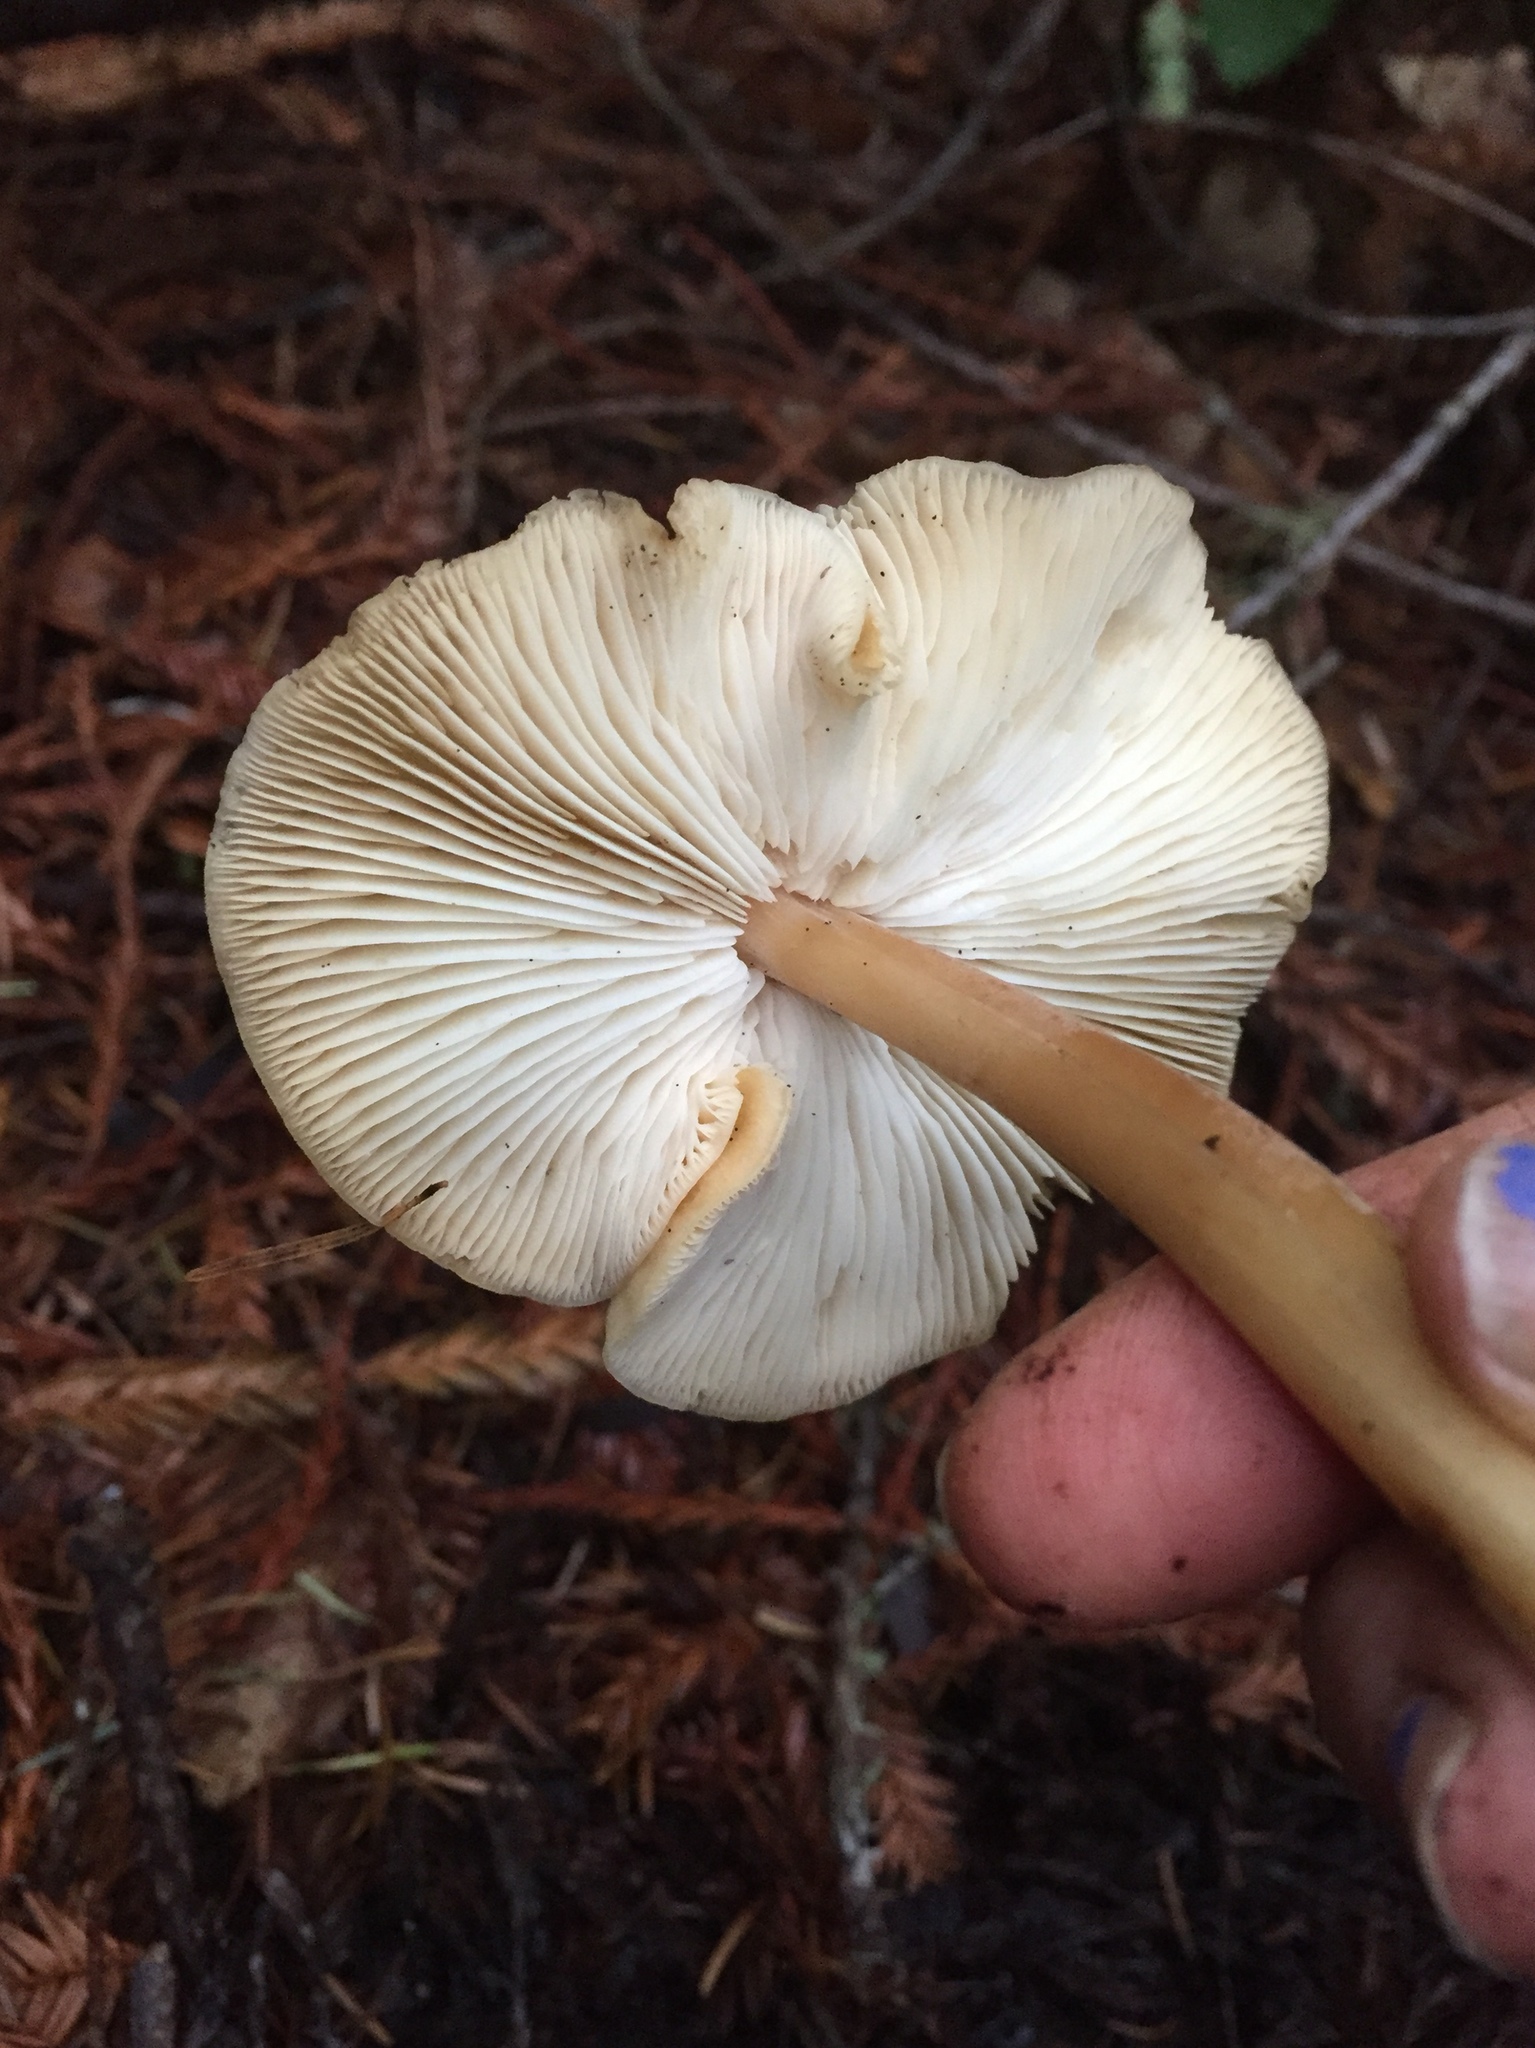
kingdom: Fungi
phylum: Basidiomycota
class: Agaricomycetes
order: Agaricales
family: Tricholomataceae
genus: Caulorhiza
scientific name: Caulorhiza umbonata
